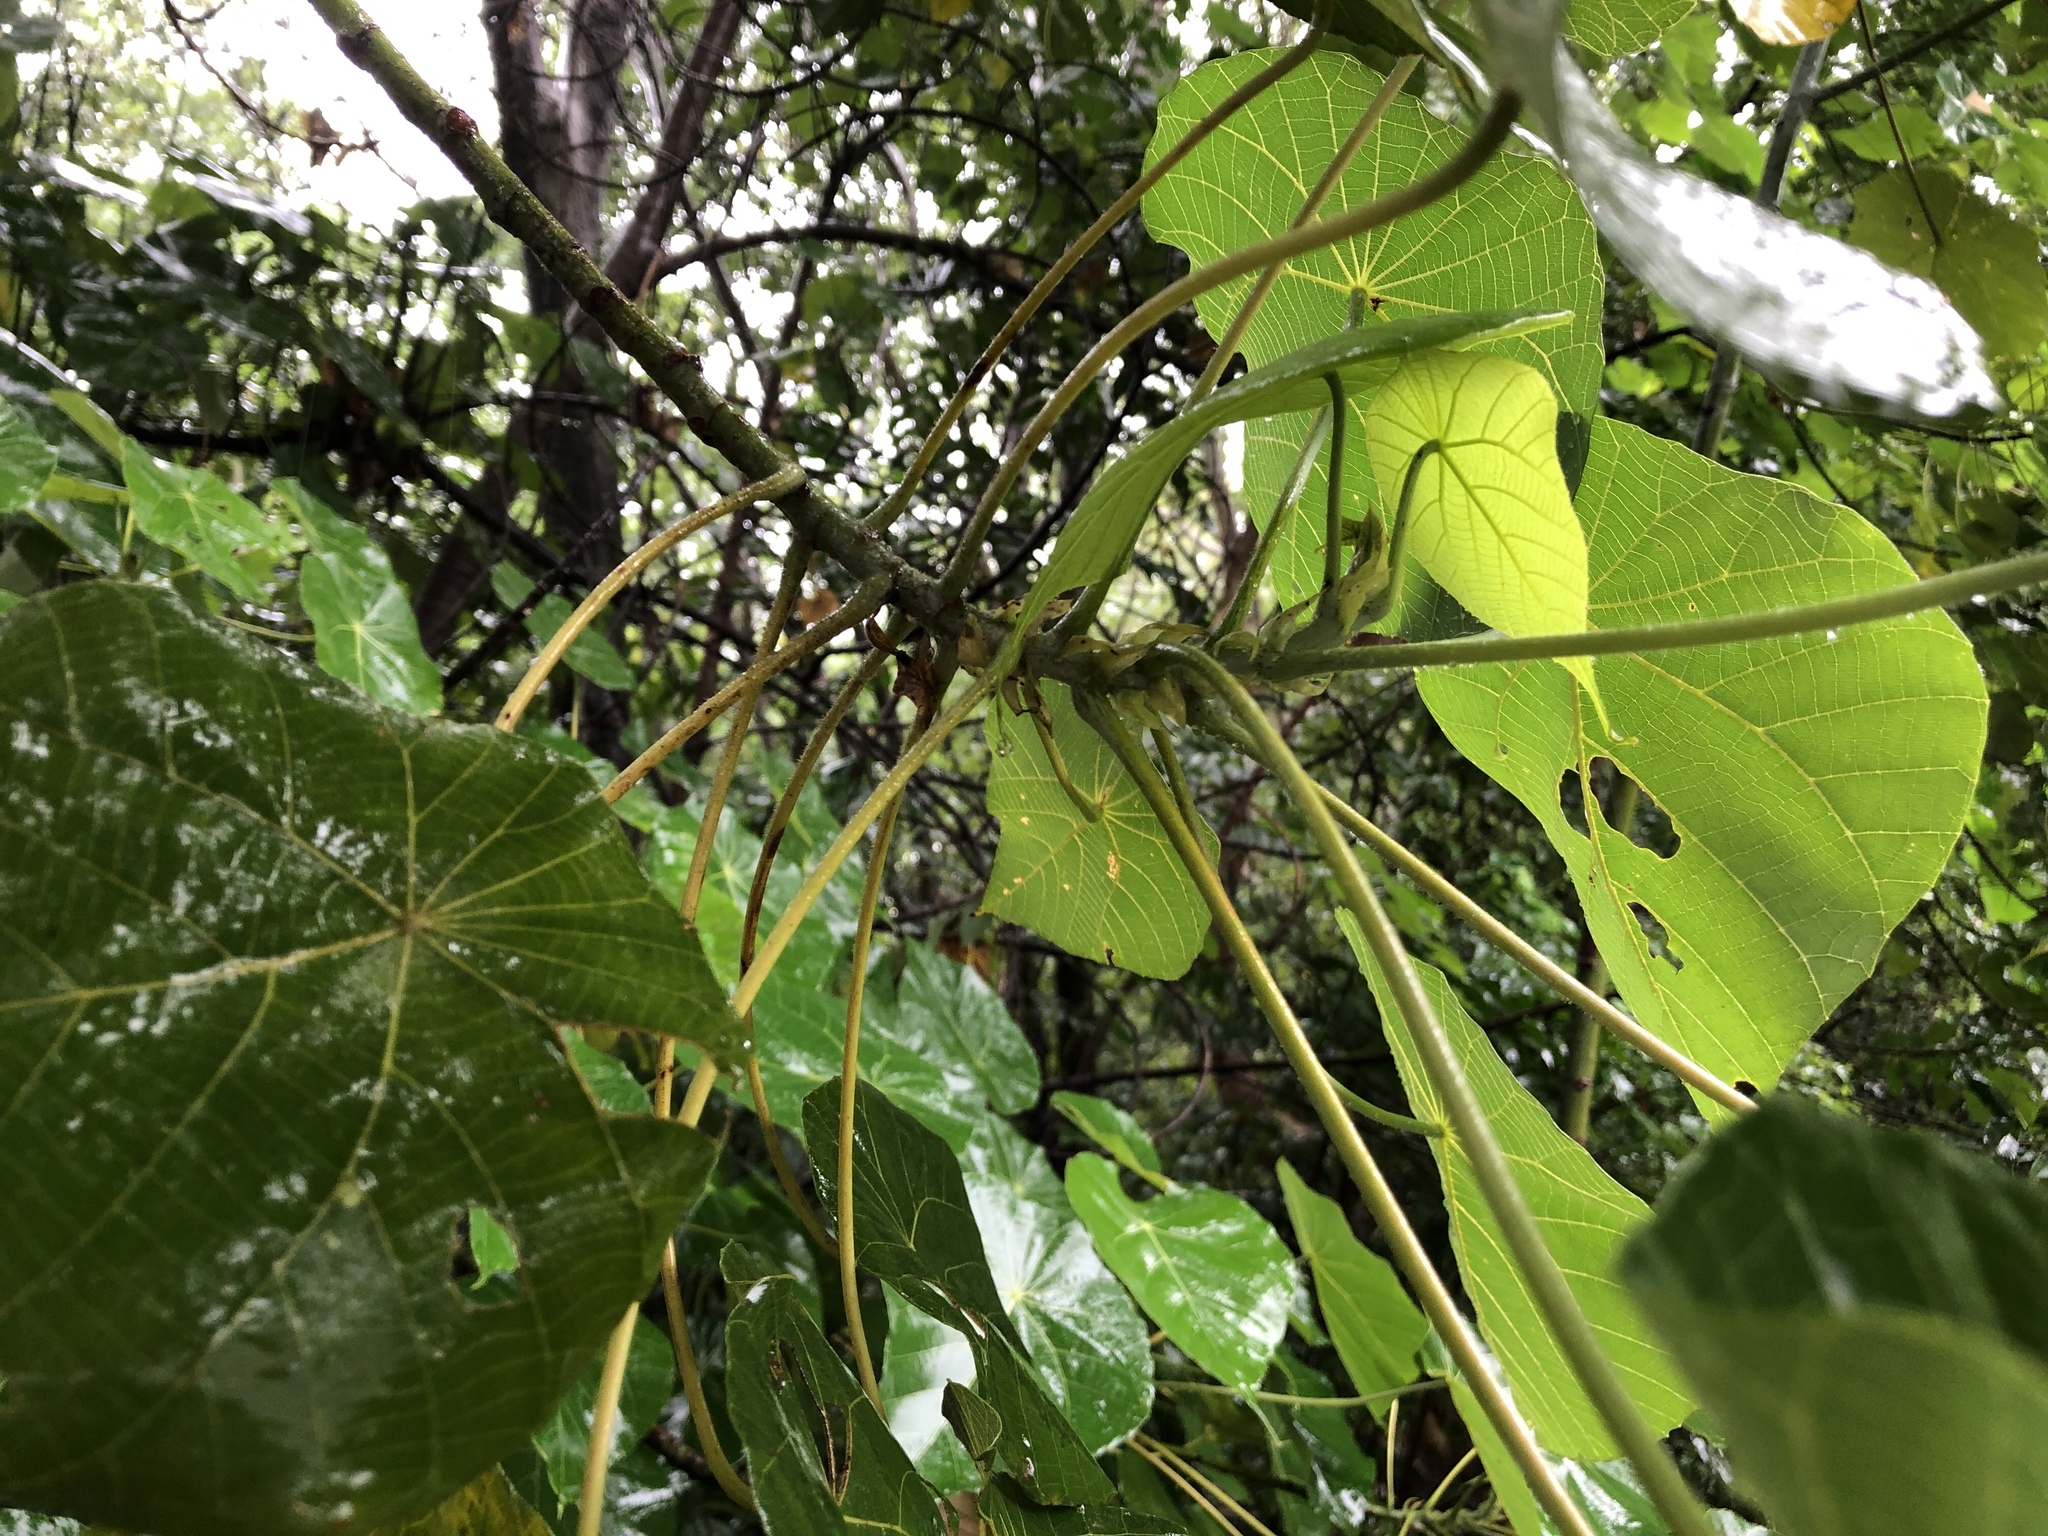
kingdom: Plantae
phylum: Tracheophyta
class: Magnoliopsida
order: Malpighiales
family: Euphorbiaceae
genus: Macaranga
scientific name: Macaranga tanarius
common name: Parasol leaf tree
